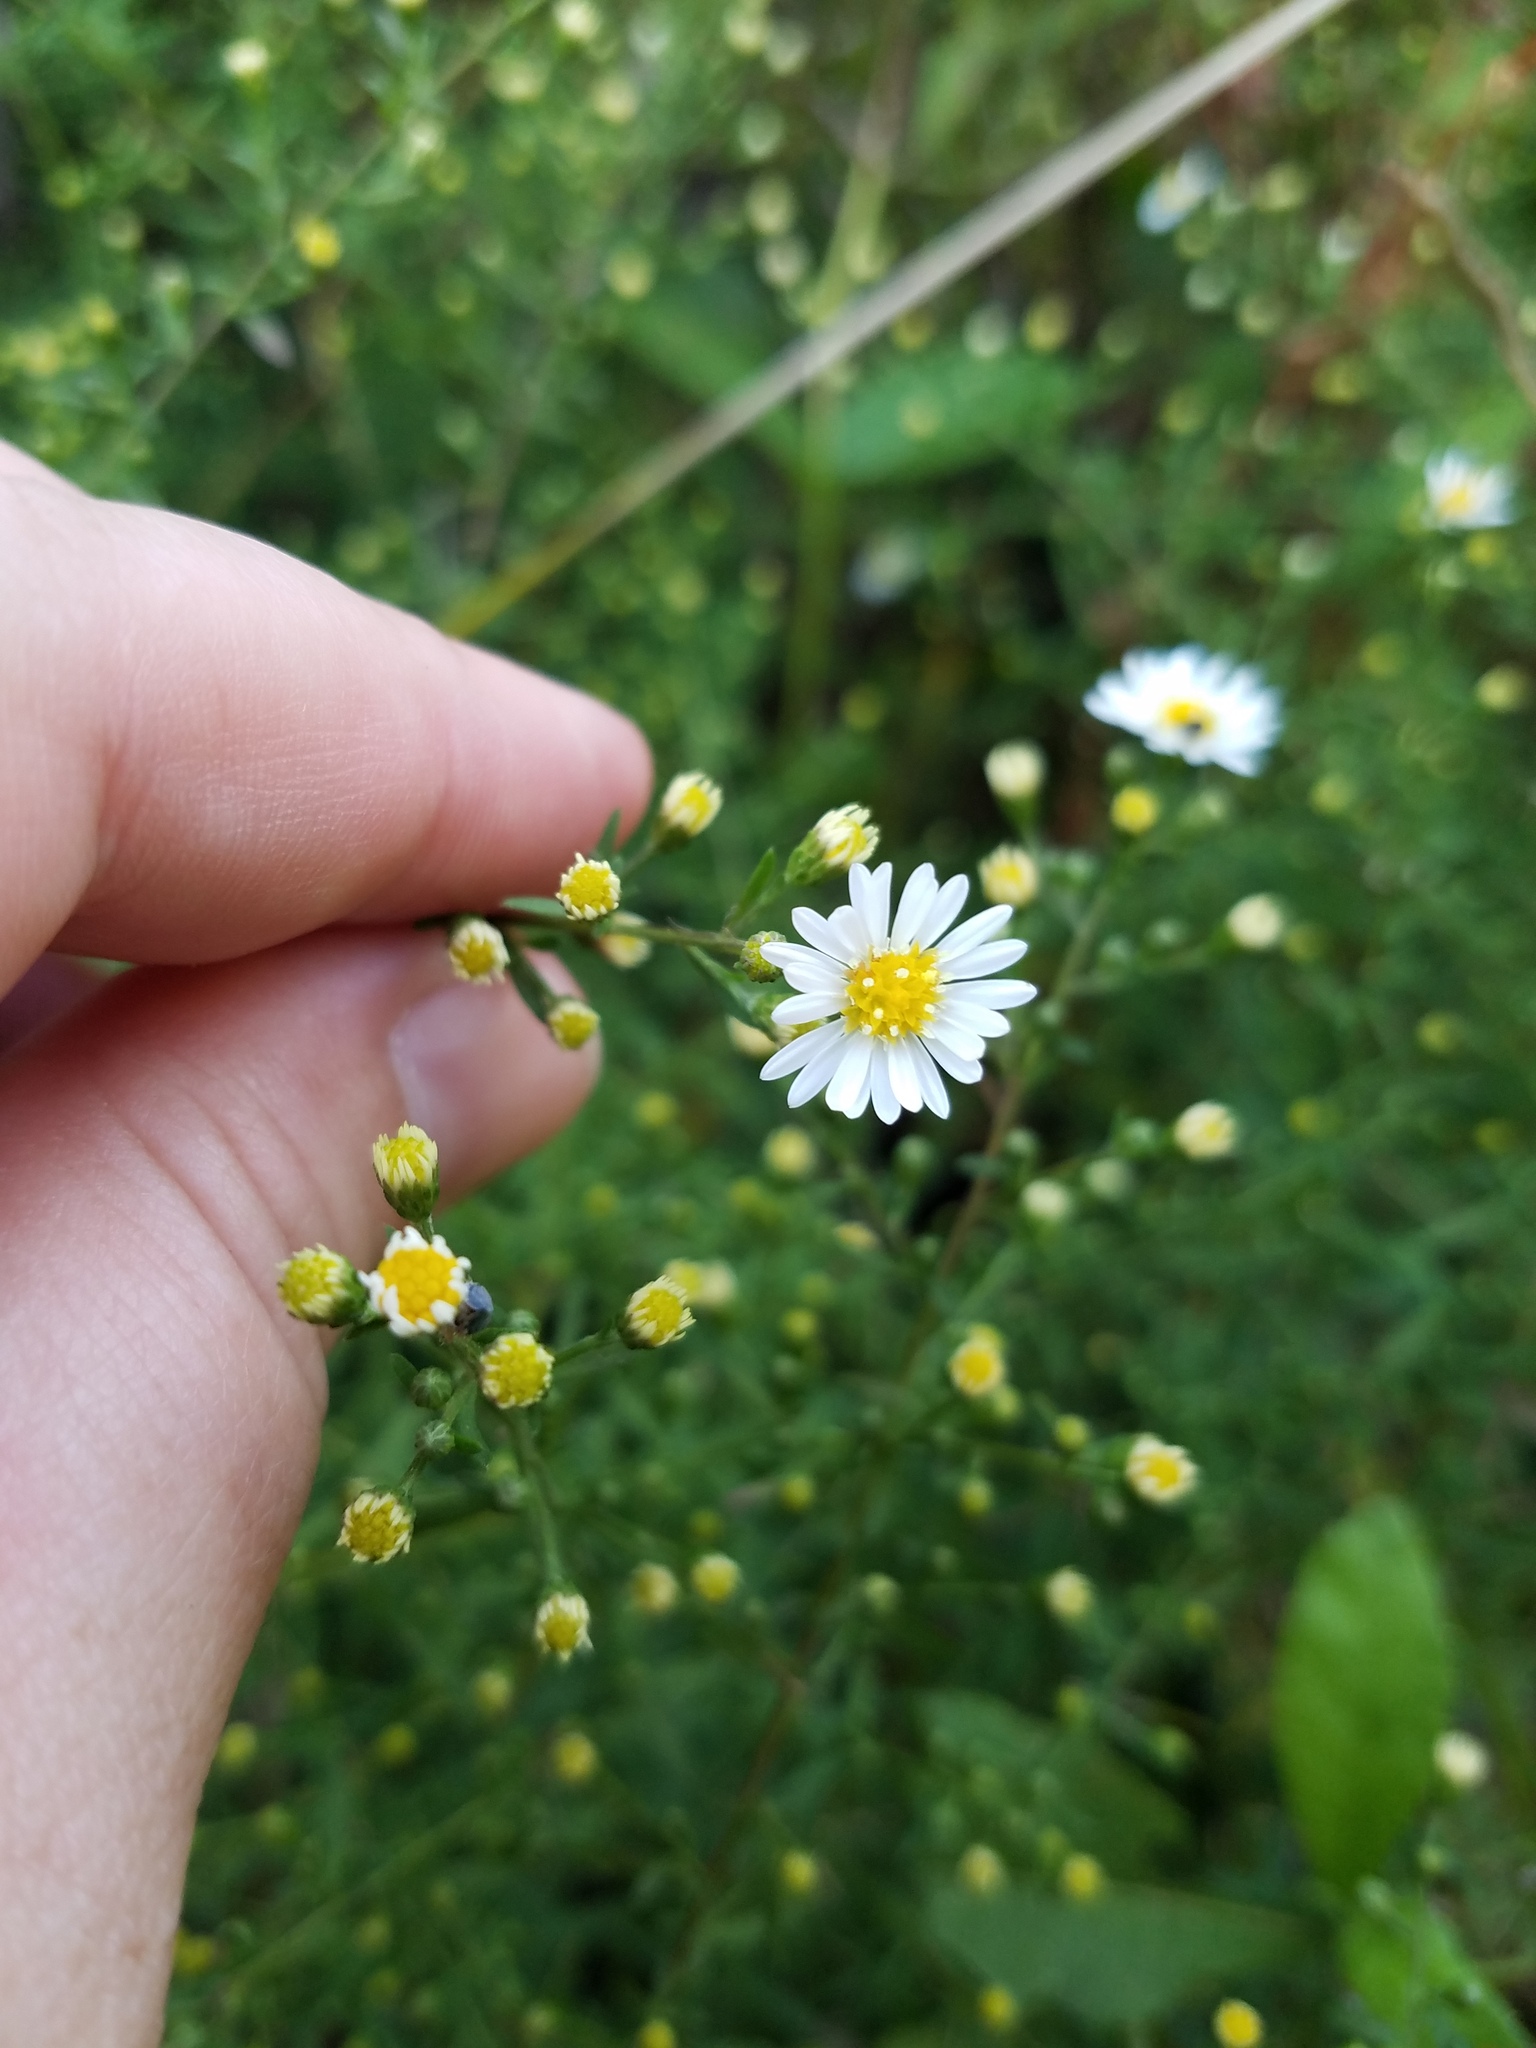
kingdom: Plantae
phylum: Tracheophyta
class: Magnoliopsida
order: Asterales
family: Asteraceae
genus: Symphyotrichum
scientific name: Symphyotrichum racemosum
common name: Small white aster
